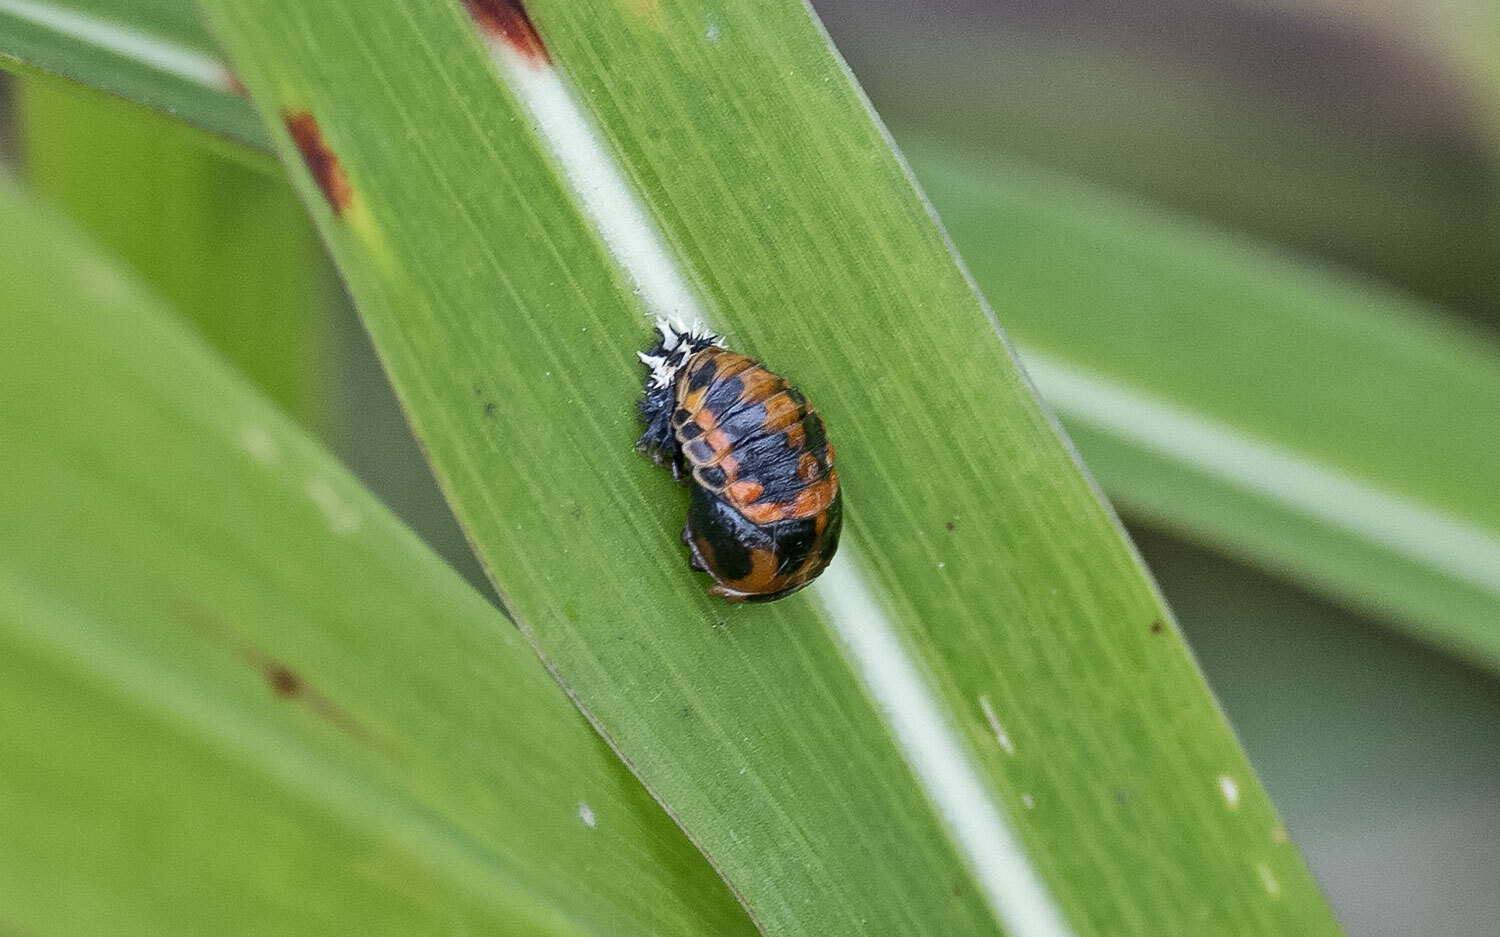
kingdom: Animalia
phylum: Arthropoda
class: Insecta
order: Coleoptera
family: Coccinellidae
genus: Harmonia
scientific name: Harmonia axyridis
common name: Harlequin ladybird
